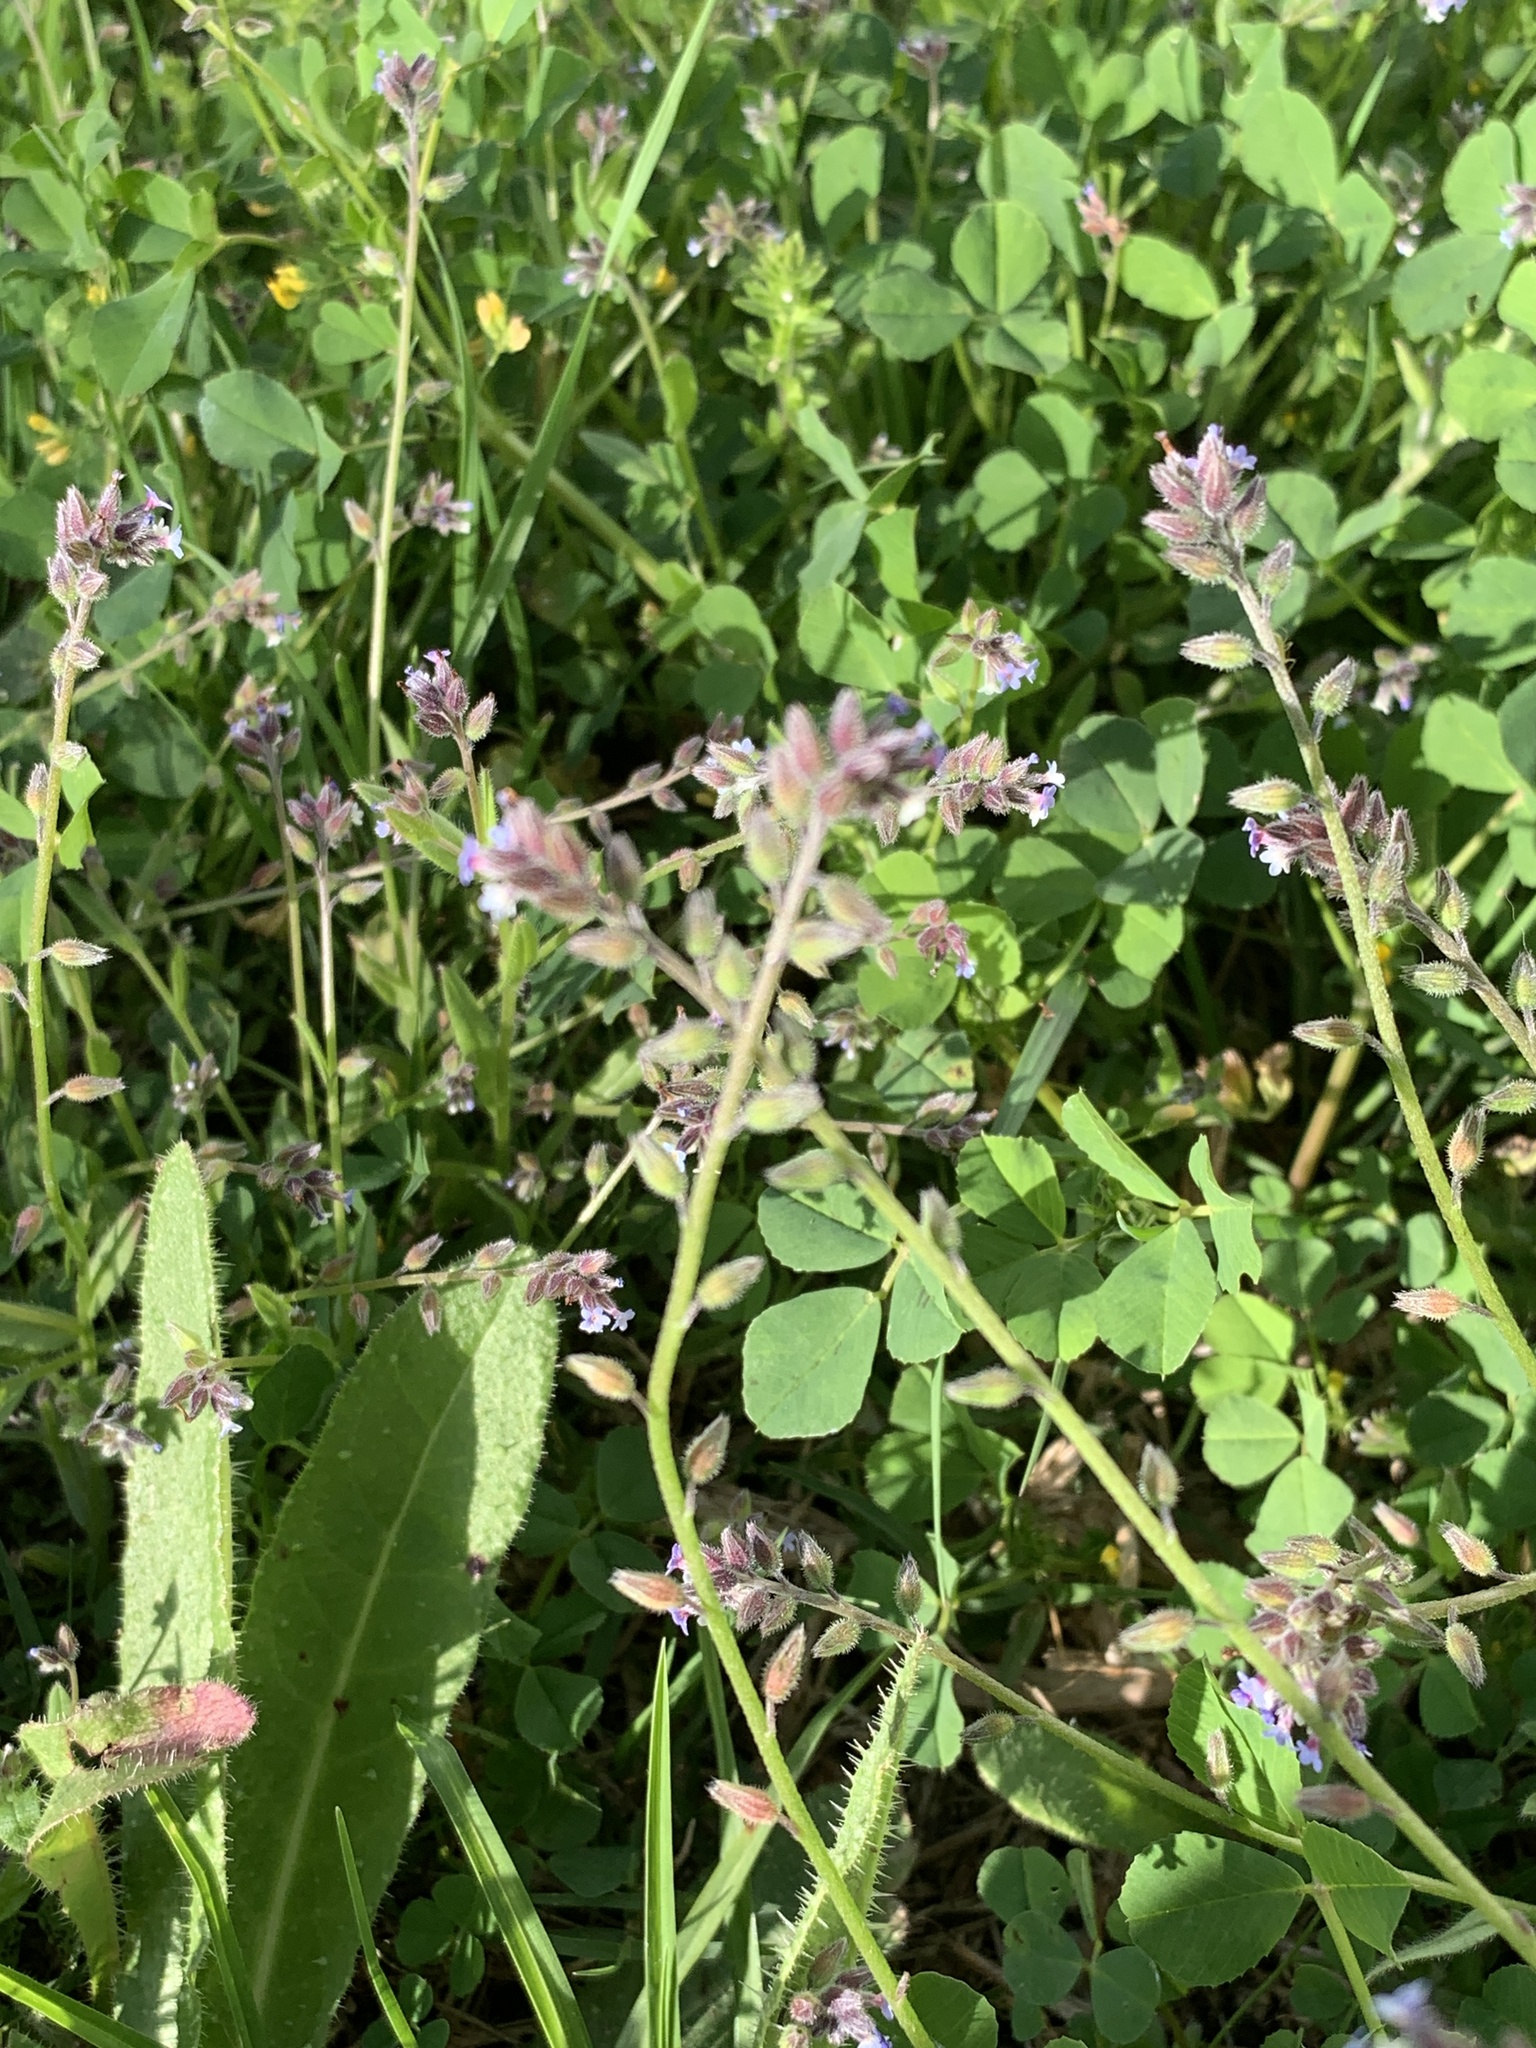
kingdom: Plantae
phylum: Tracheophyta
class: Magnoliopsida
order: Boraginales
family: Boraginaceae
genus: Myosotis
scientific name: Myosotis discolor
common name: Changing forget-me-not
